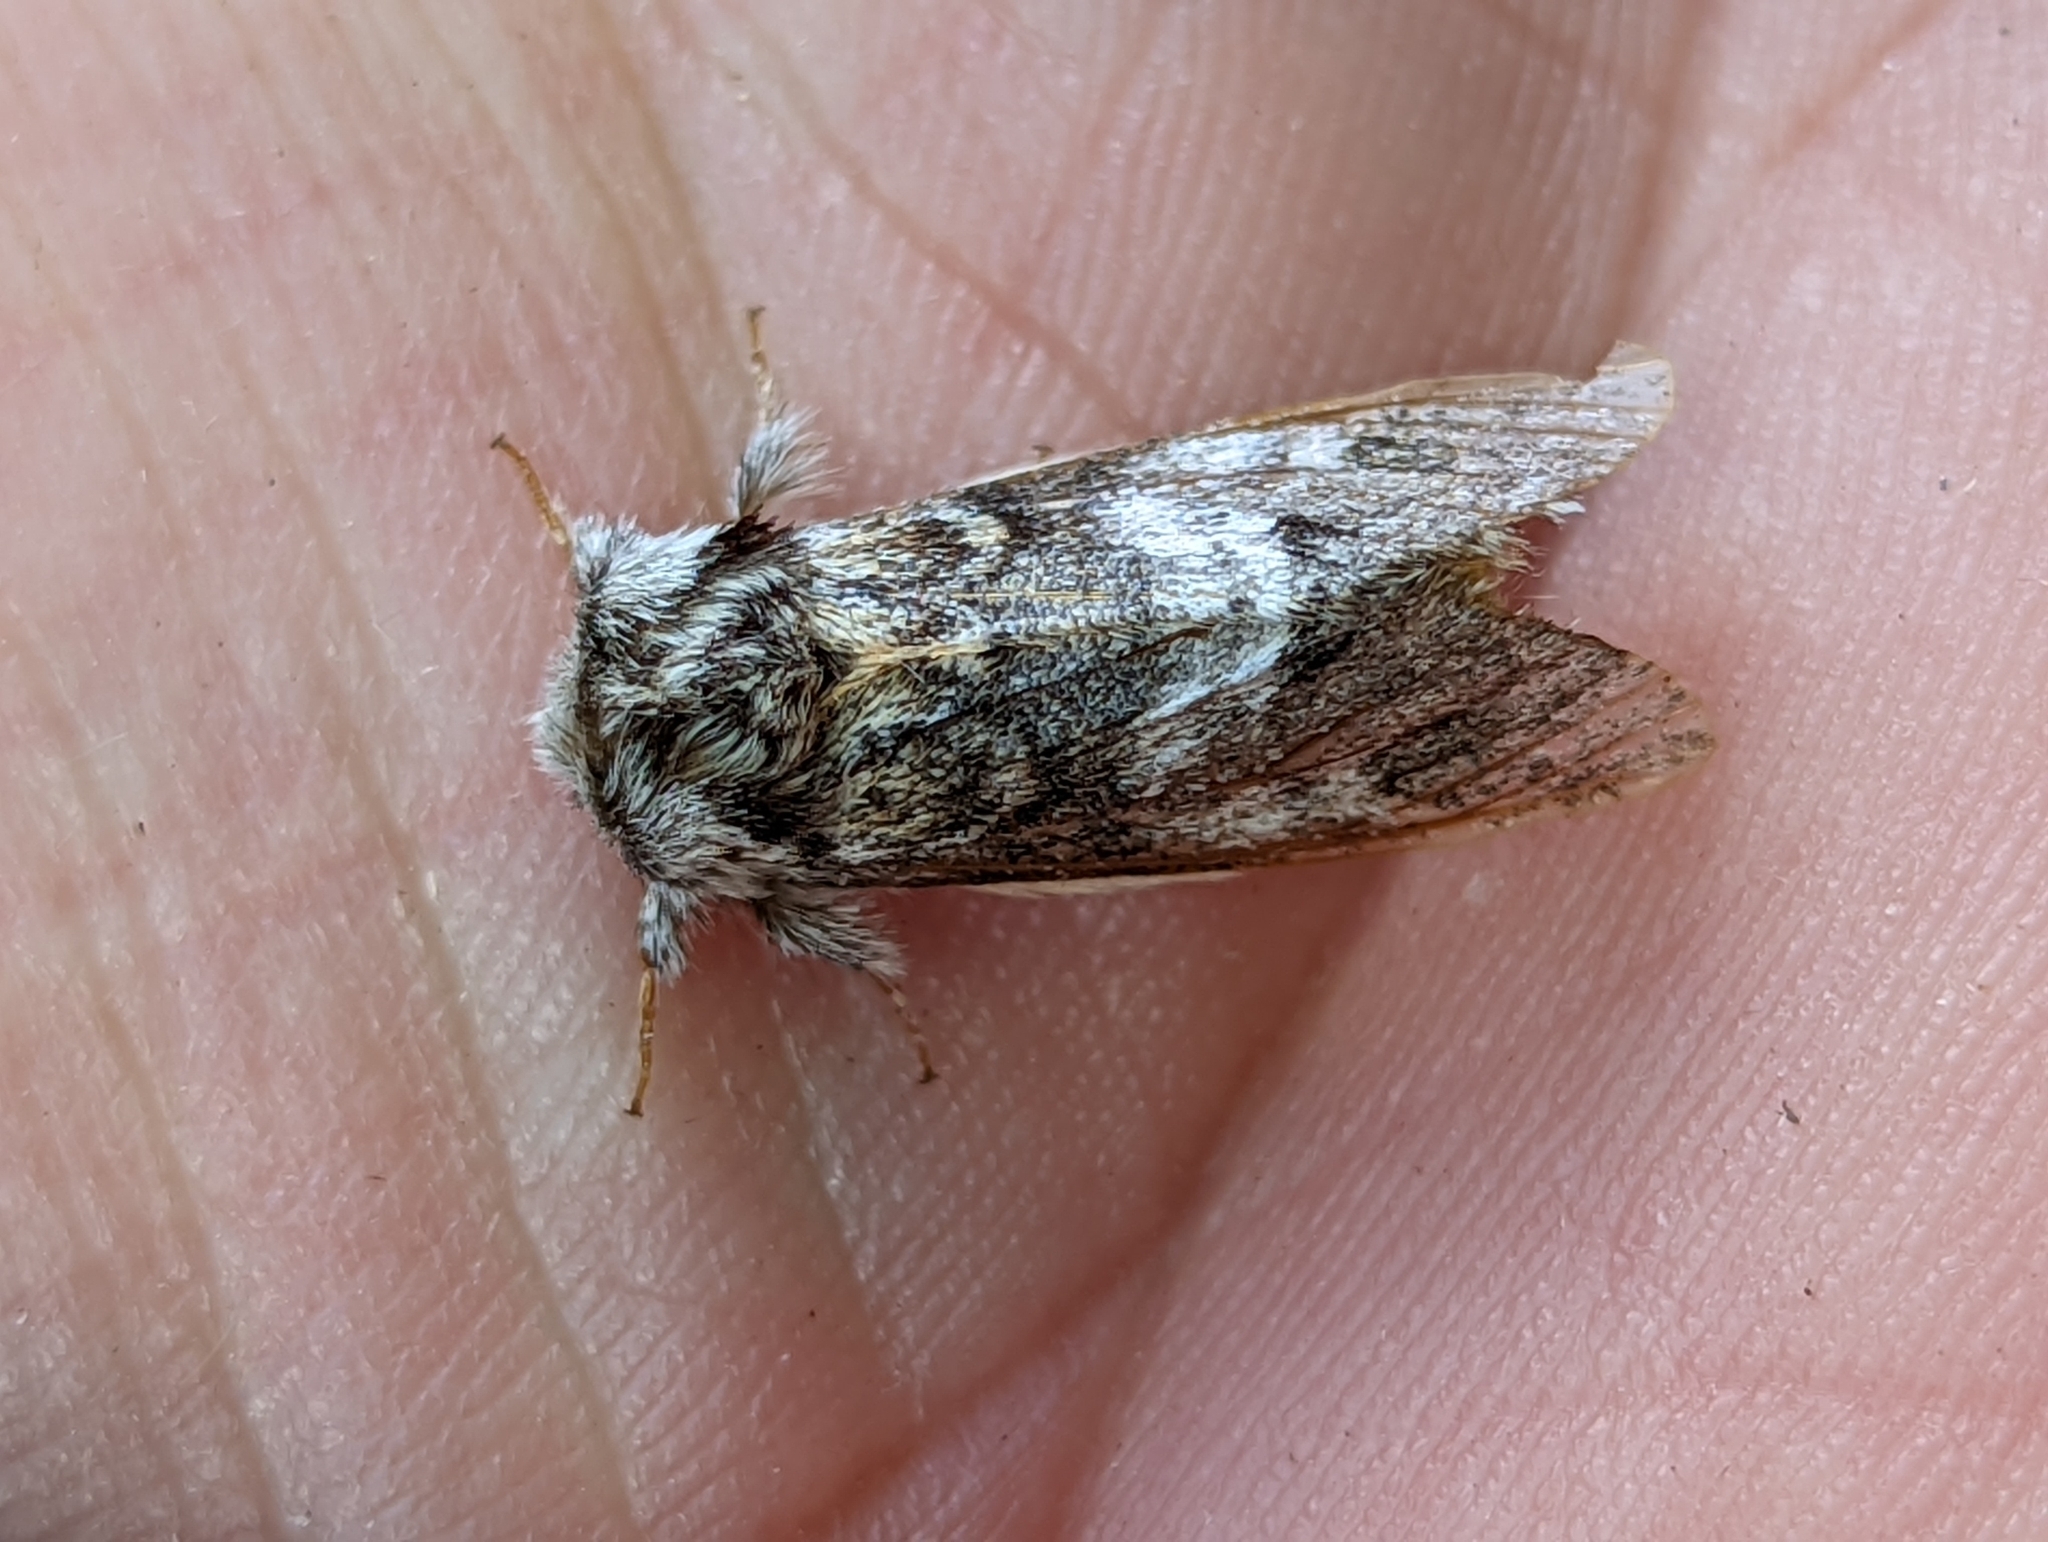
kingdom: Animalia
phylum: Arthropoda
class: Insecta
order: Lepidoptera
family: Notodontidae
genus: Drymonia
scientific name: Drymonia dodonaea
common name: Marbled brown
